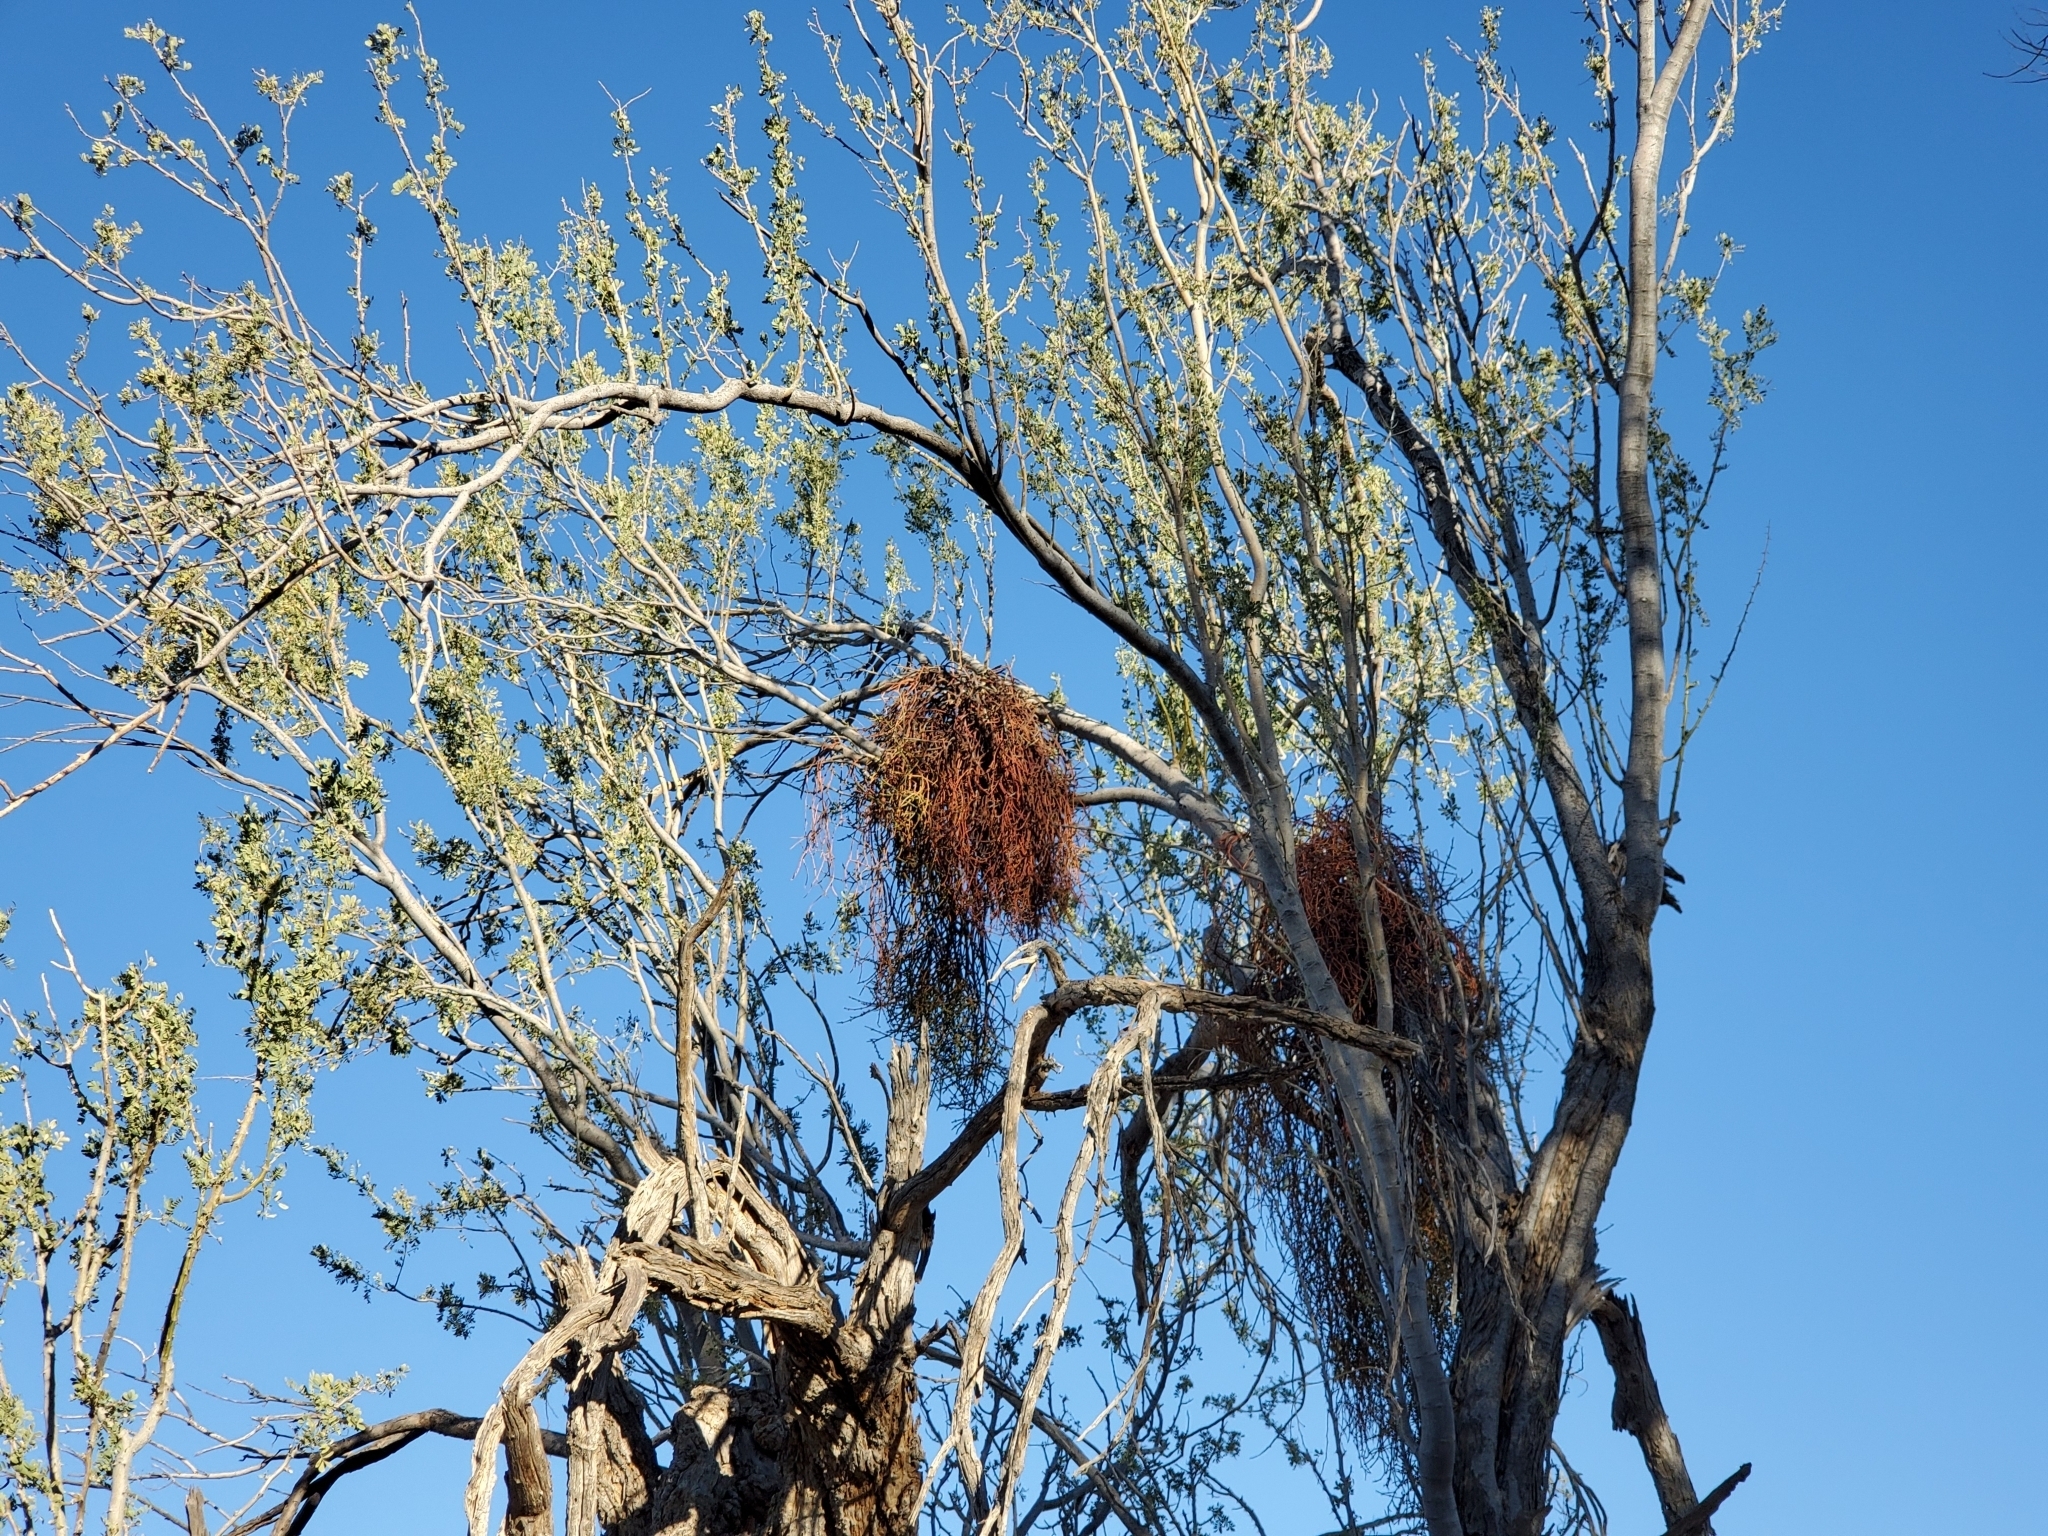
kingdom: Plantae
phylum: Tracheophyta
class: Magnoliopsida
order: Santalales
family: Viscaceae
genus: Phoradendron
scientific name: Phoradendron californicum
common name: Acacia mistletoe
